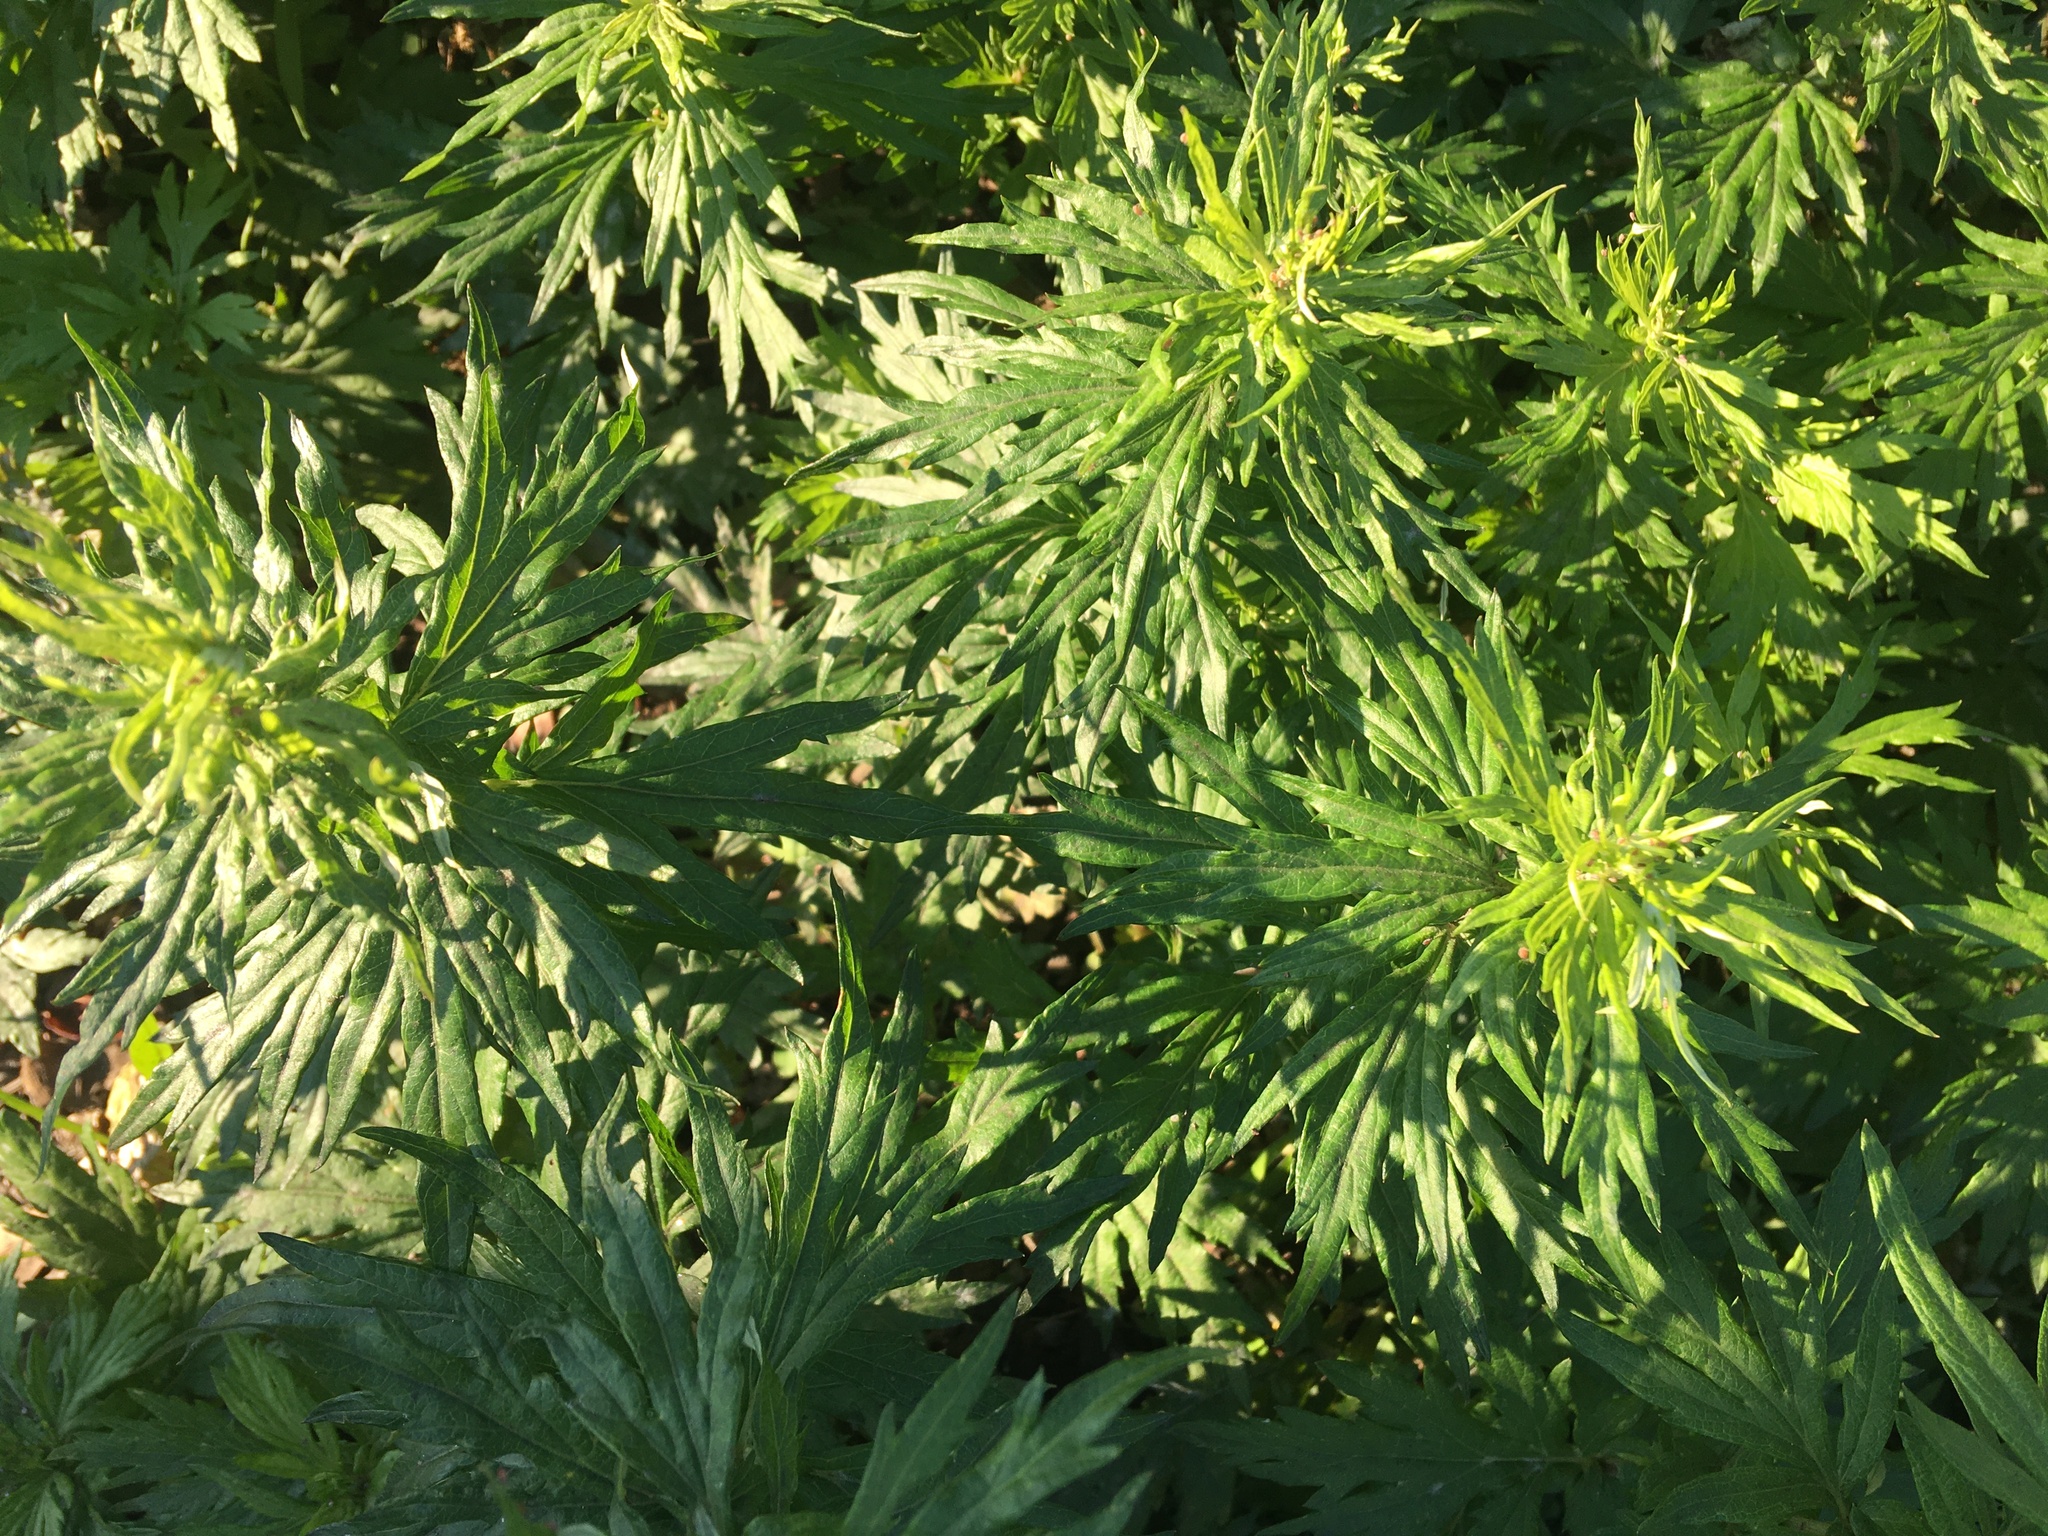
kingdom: Plantae
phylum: Tracheophyta
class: Magnoliopsida
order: Asterales
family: Asteraceae
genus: Artemisia
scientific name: Artemisia vulgaris
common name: Mugwort
